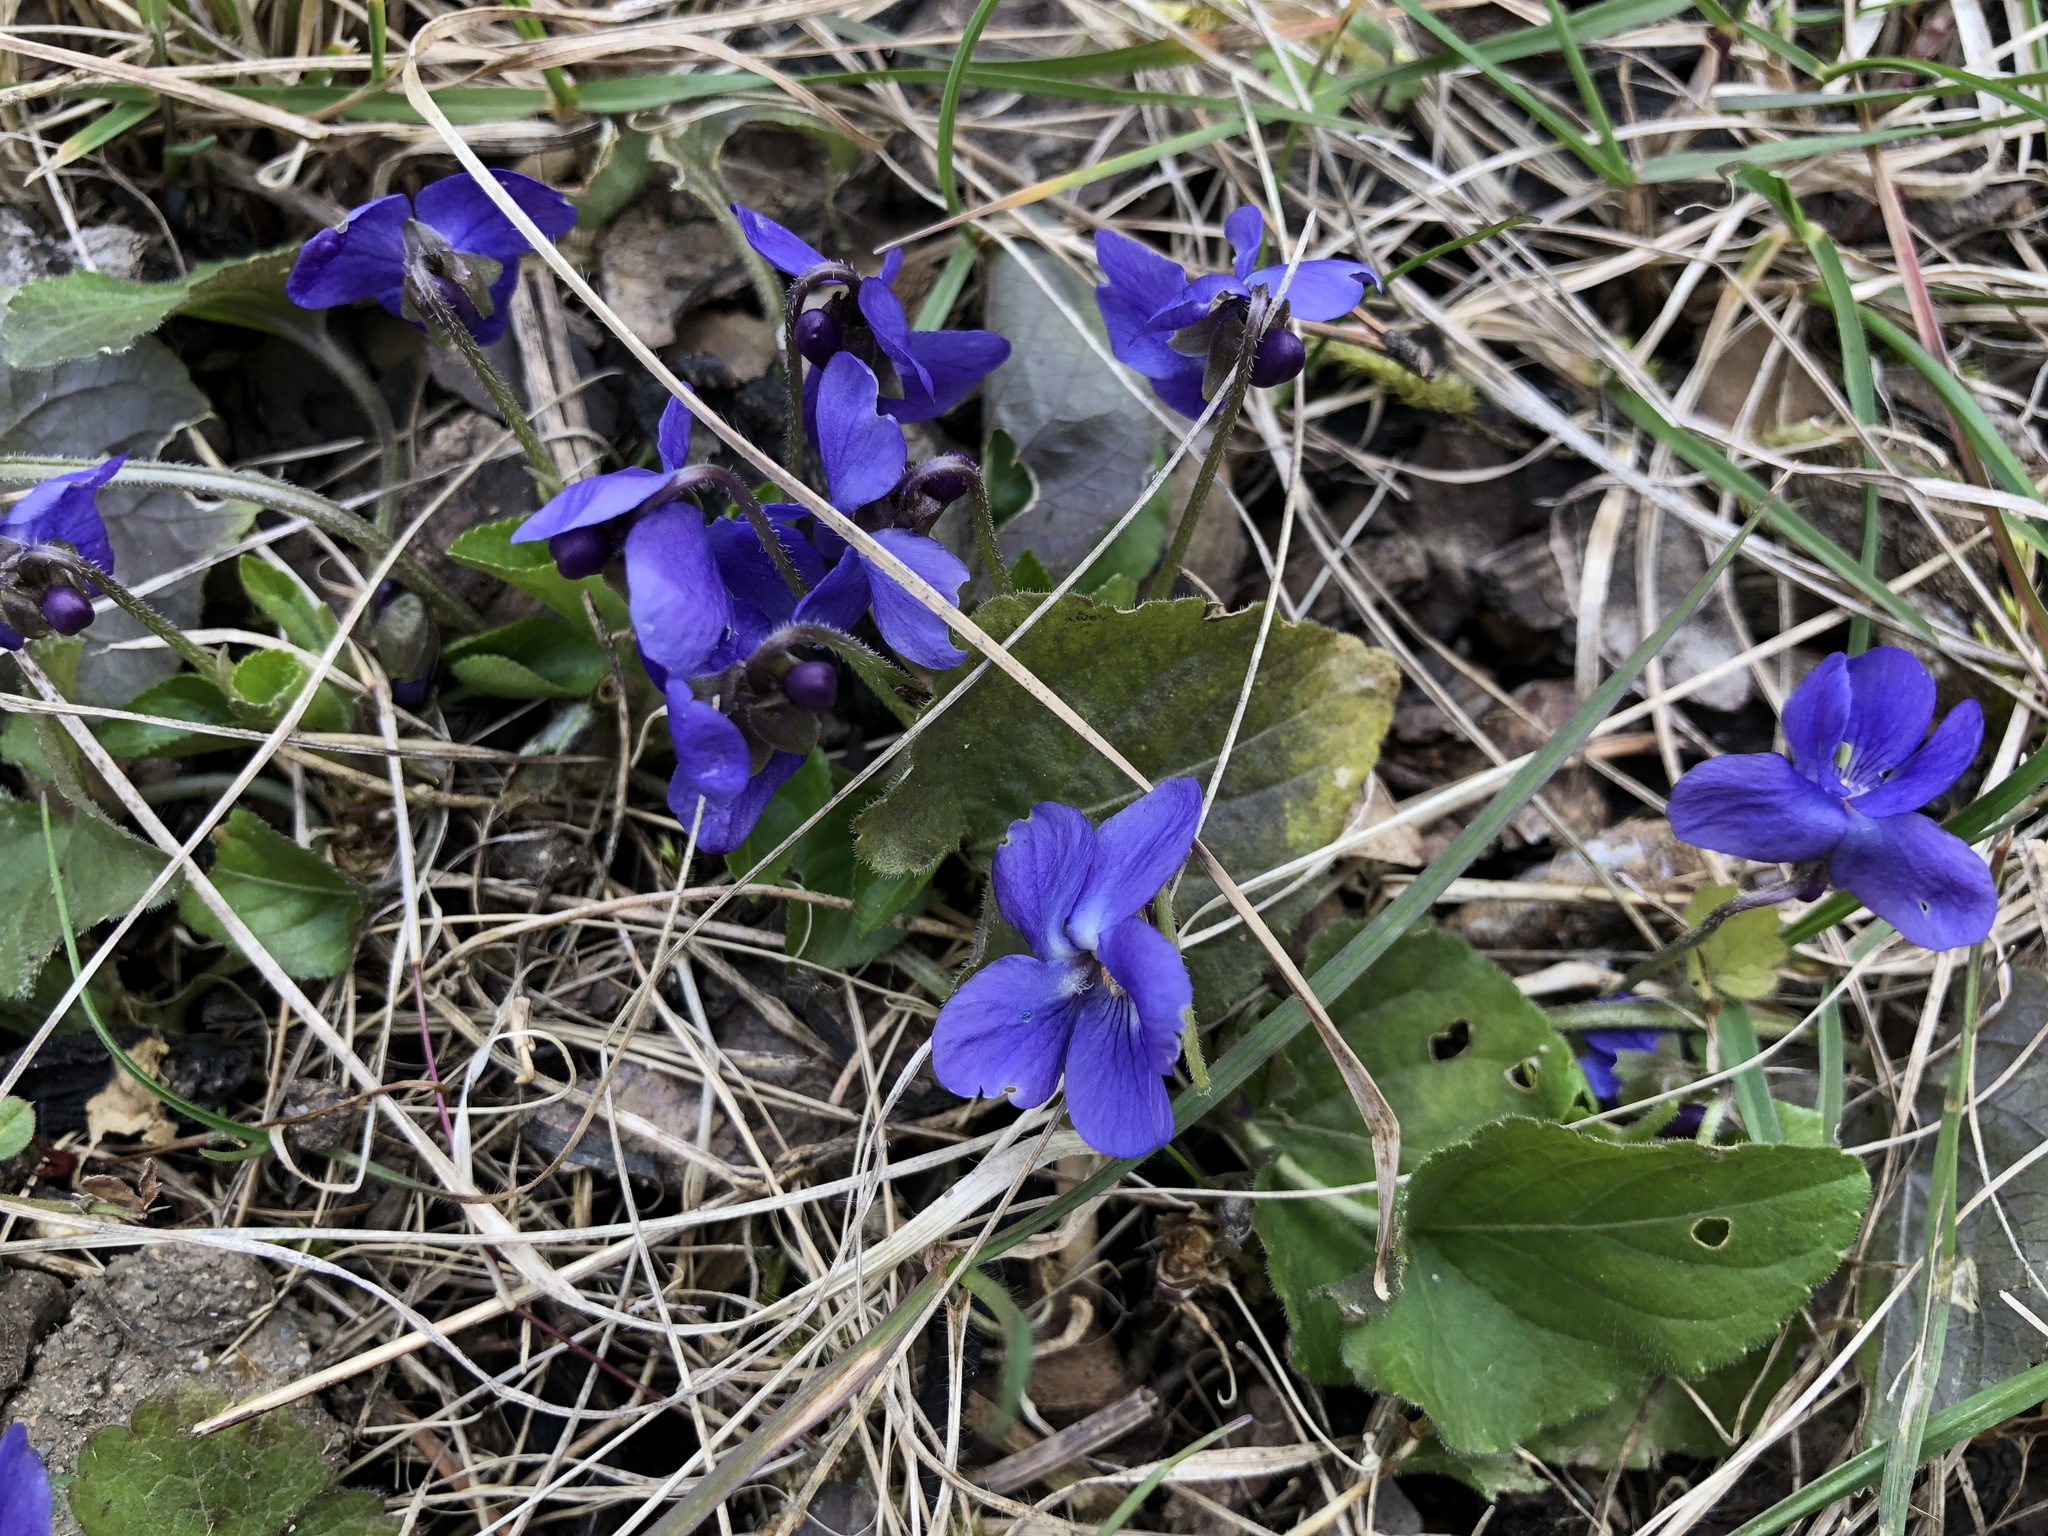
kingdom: Plantae
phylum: Tracheophyta
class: Magnoliopsida
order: Malpighiales
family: Violaceae
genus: Viola
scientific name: Viola reichenbachiana
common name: Early dog-violet
